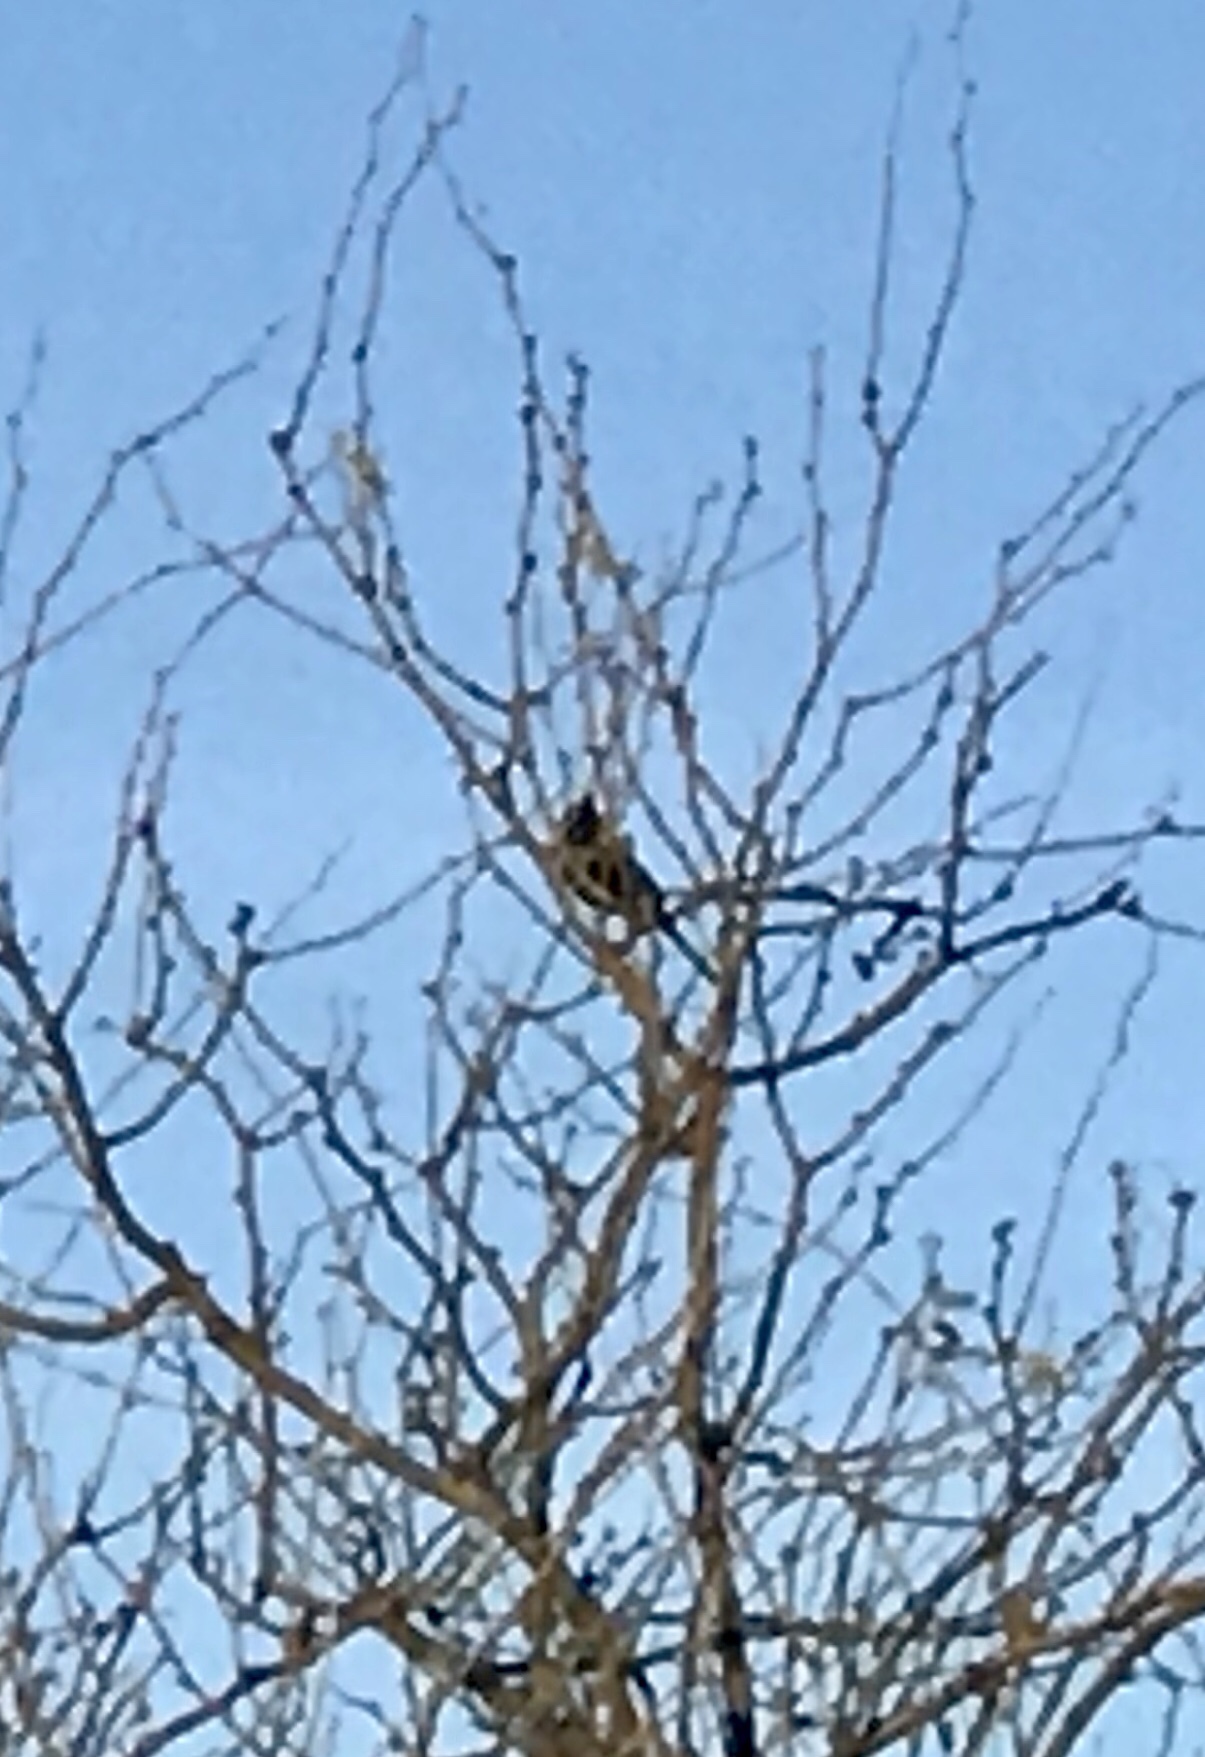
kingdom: Animalia
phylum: Chordata
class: Aves
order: Passeriformes
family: Ptilogonatidae
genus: Phainopepla
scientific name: Phainopepla nitens
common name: Phainopepla
